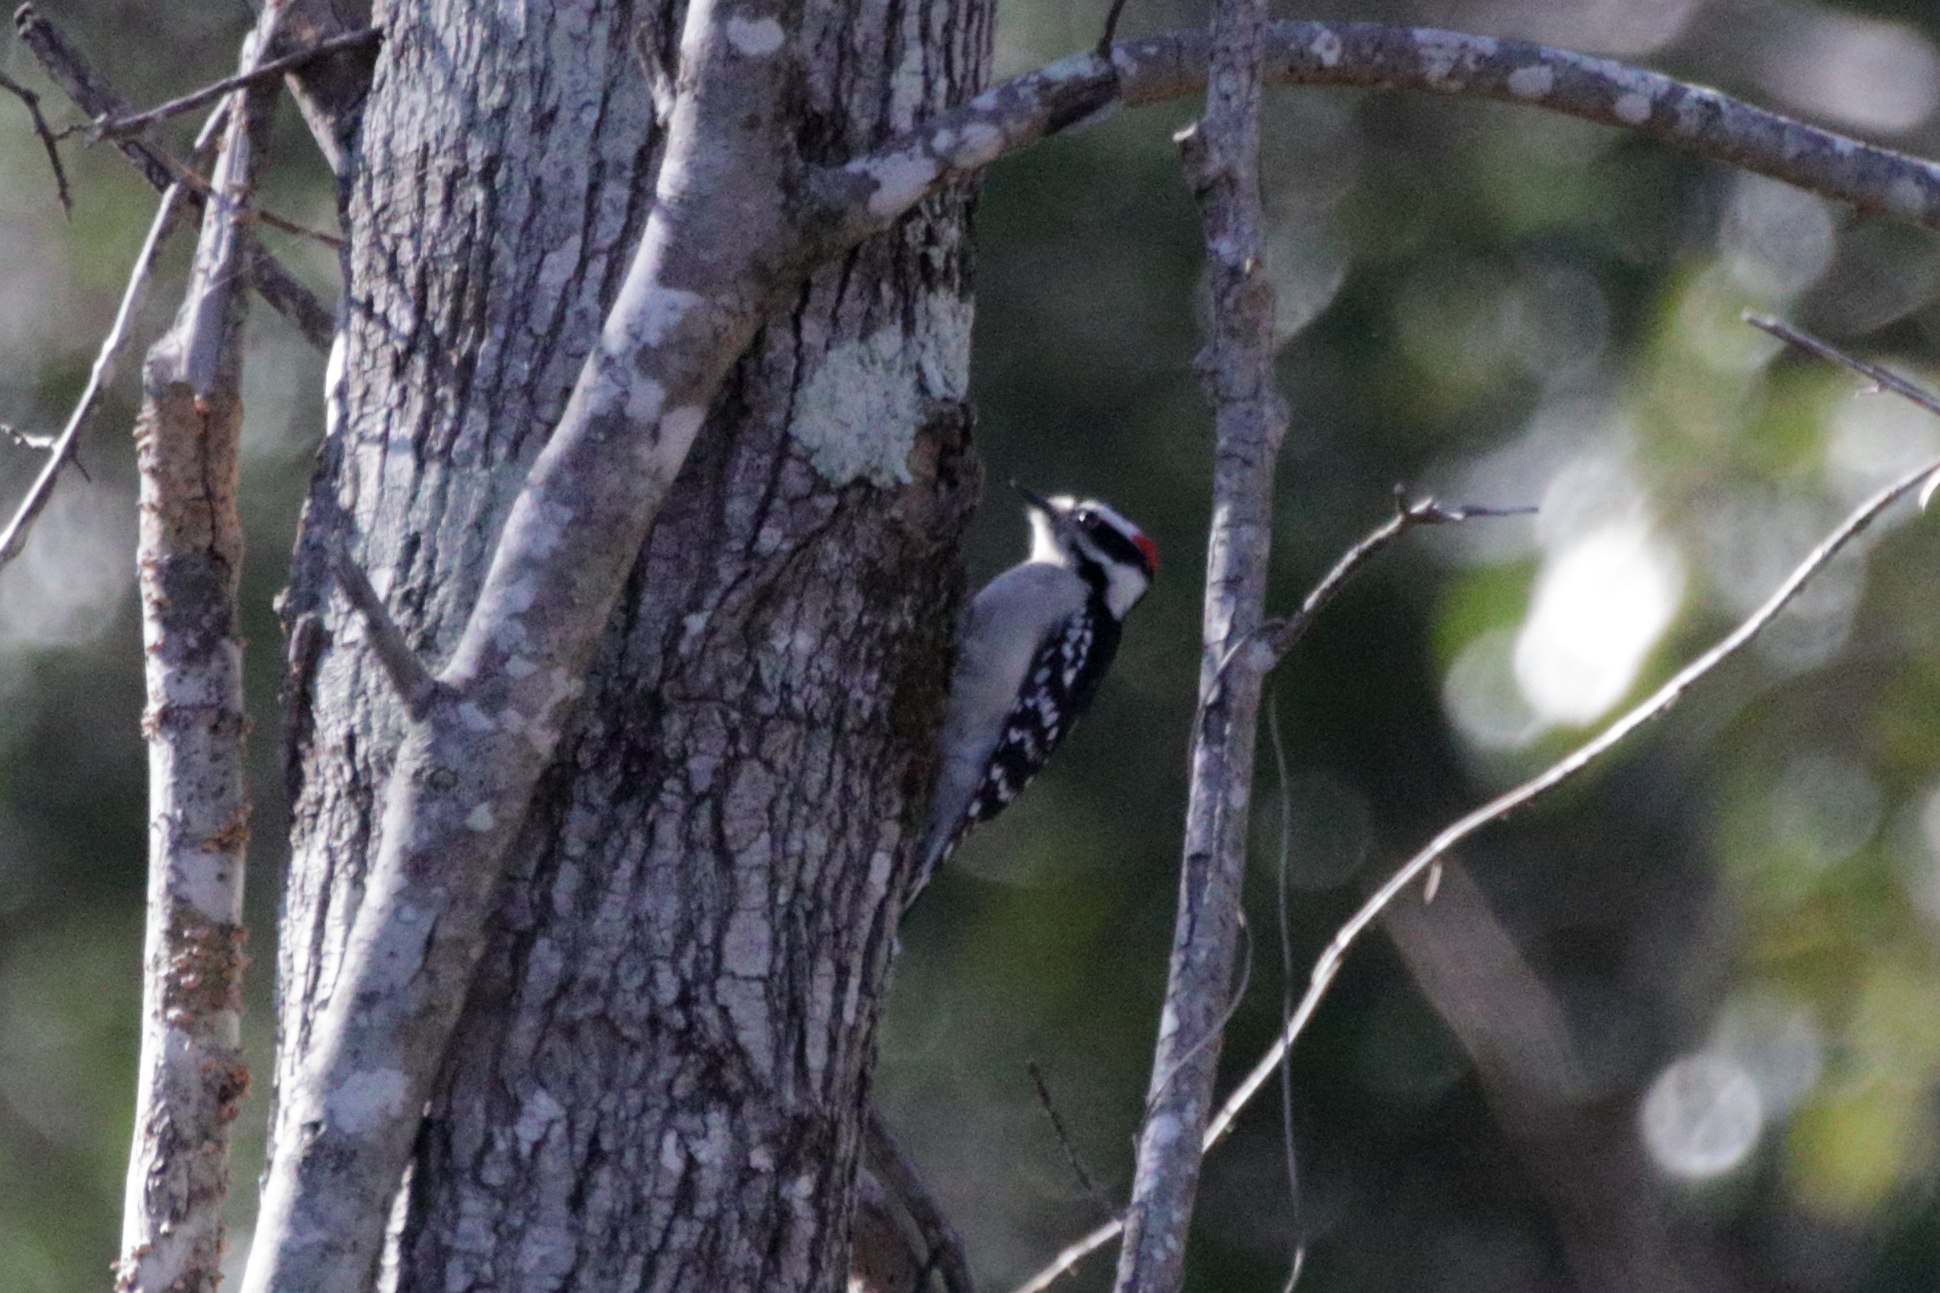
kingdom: Animalia
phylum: Chordata
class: Aves
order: Piciformes
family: Picidae
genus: Dryobates
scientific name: Dryobates pubescens
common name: Downy woodpecker
